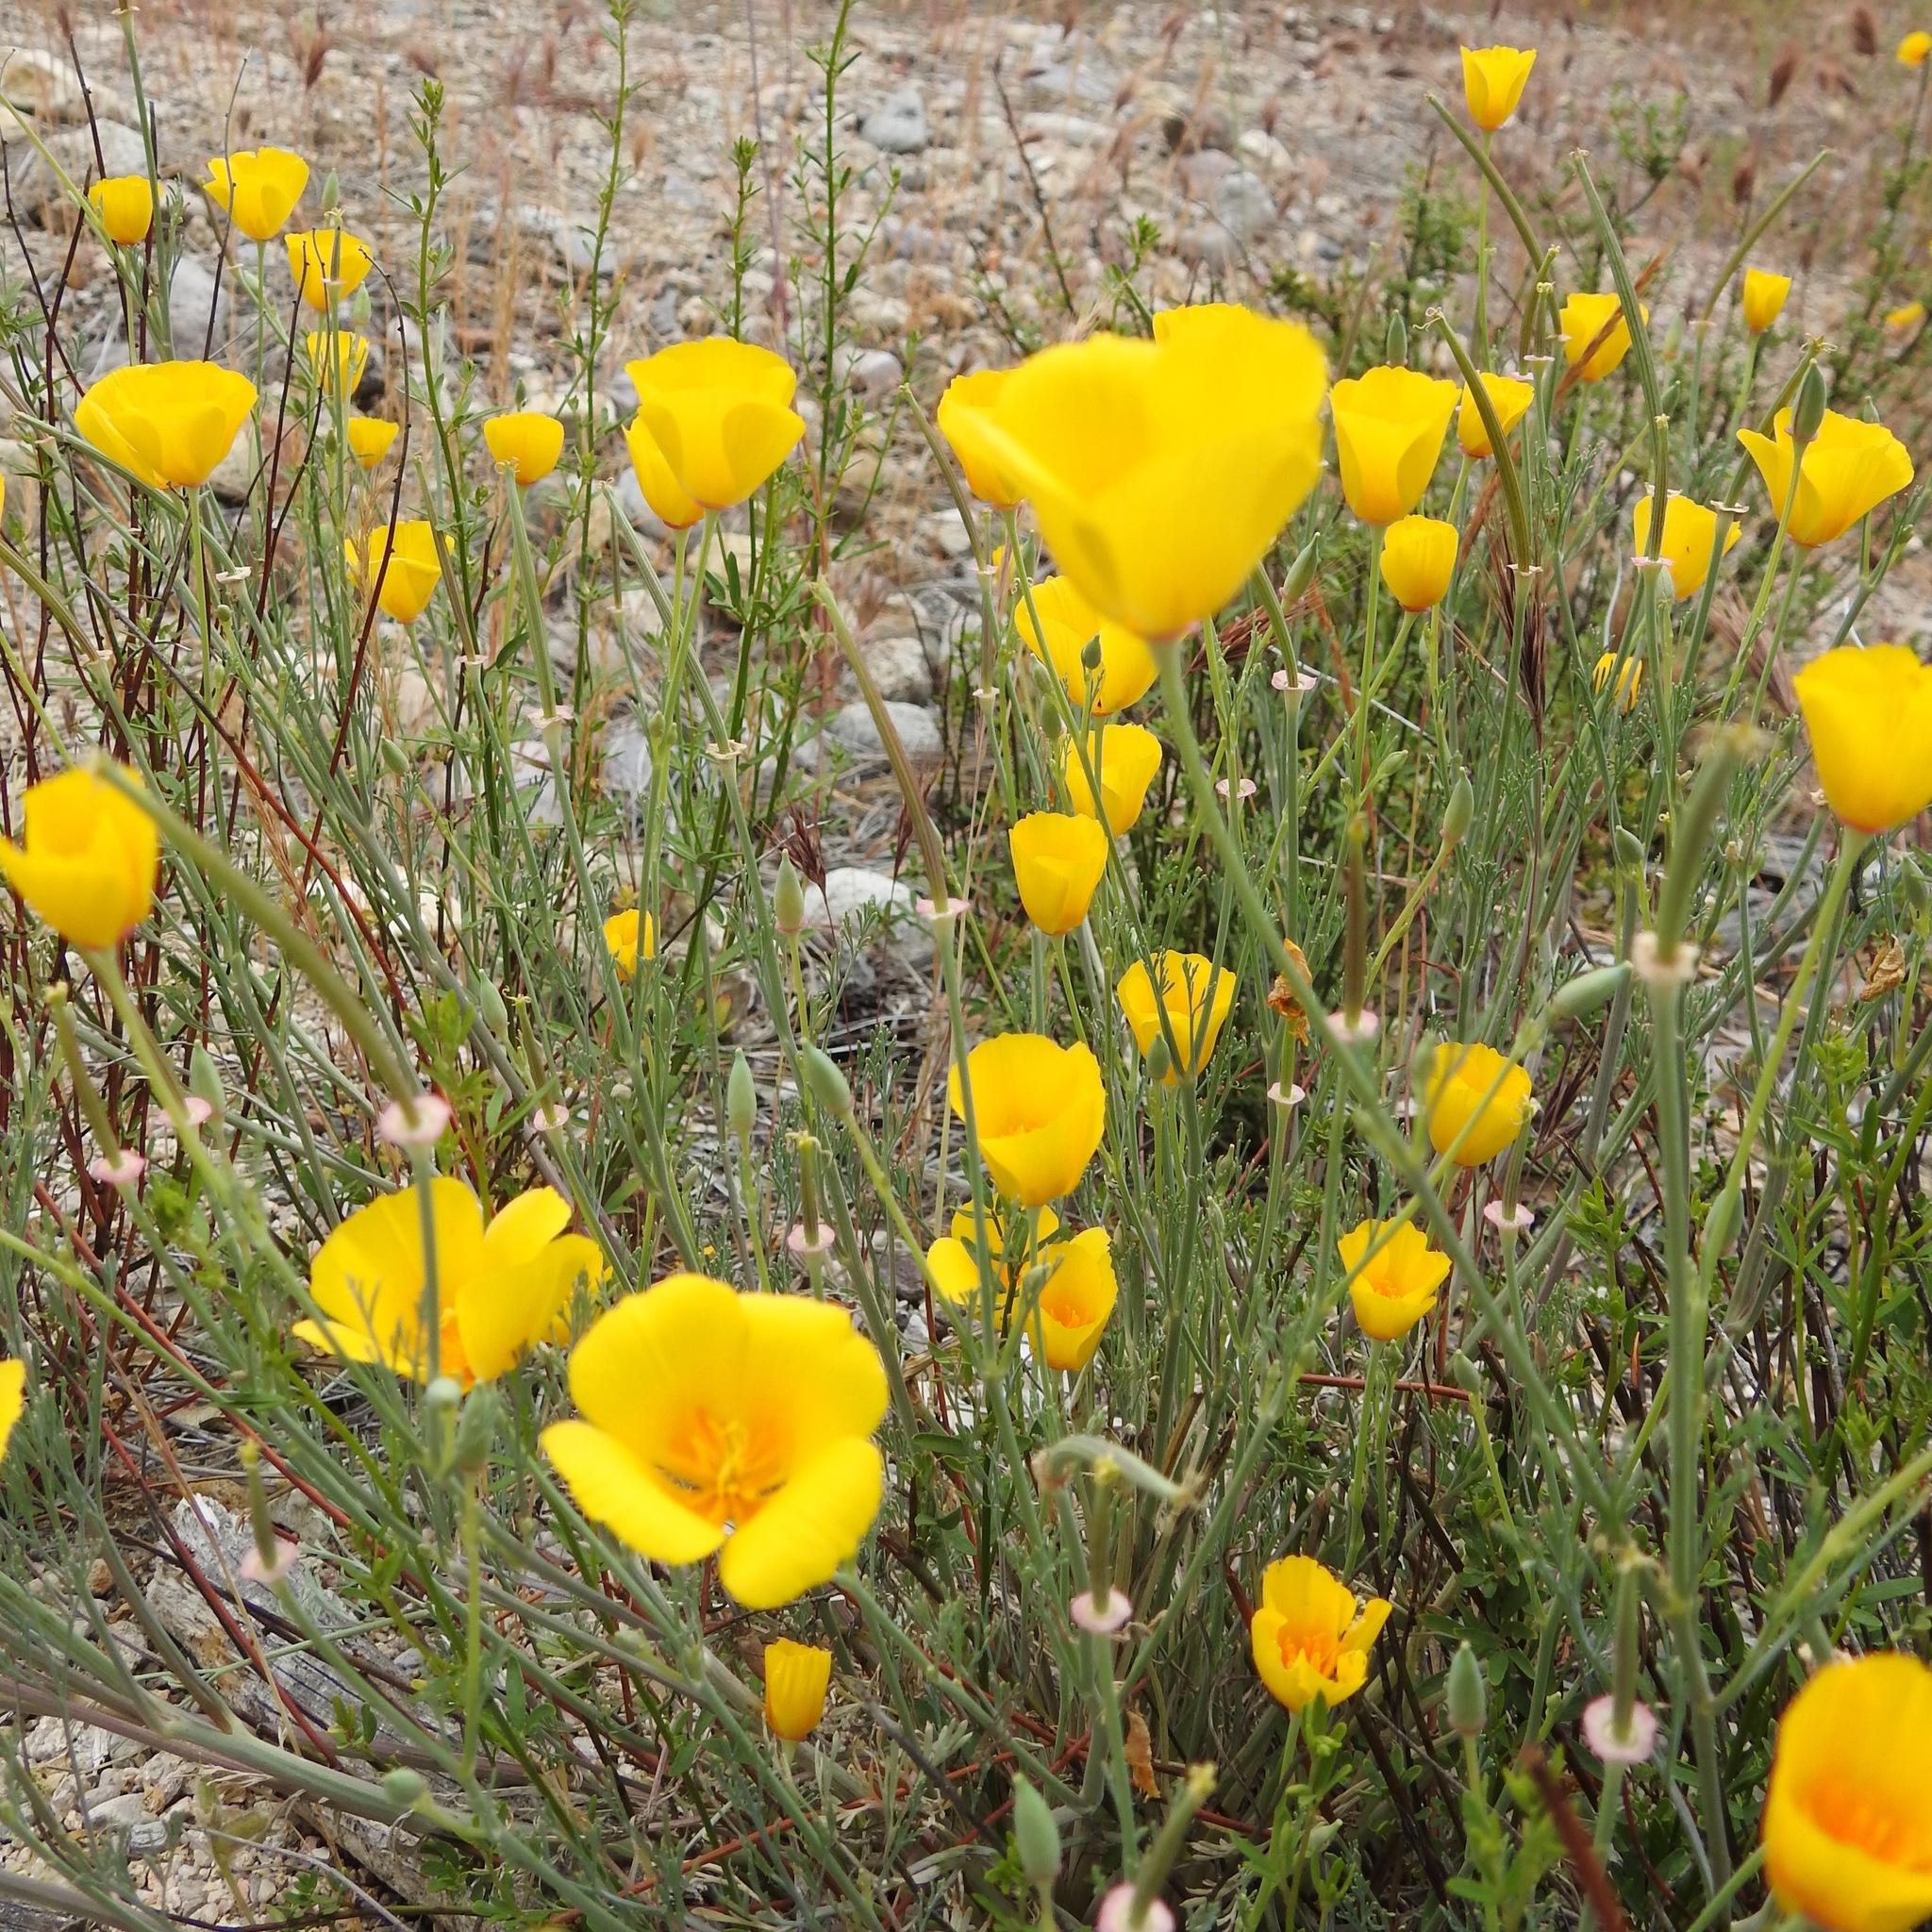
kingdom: Plantae
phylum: Tracheophyta
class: Magnoliopsida
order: Ranunculales
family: Papaveraceae
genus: Eschscholzia
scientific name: Eschscholzia californica
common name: California poppy
